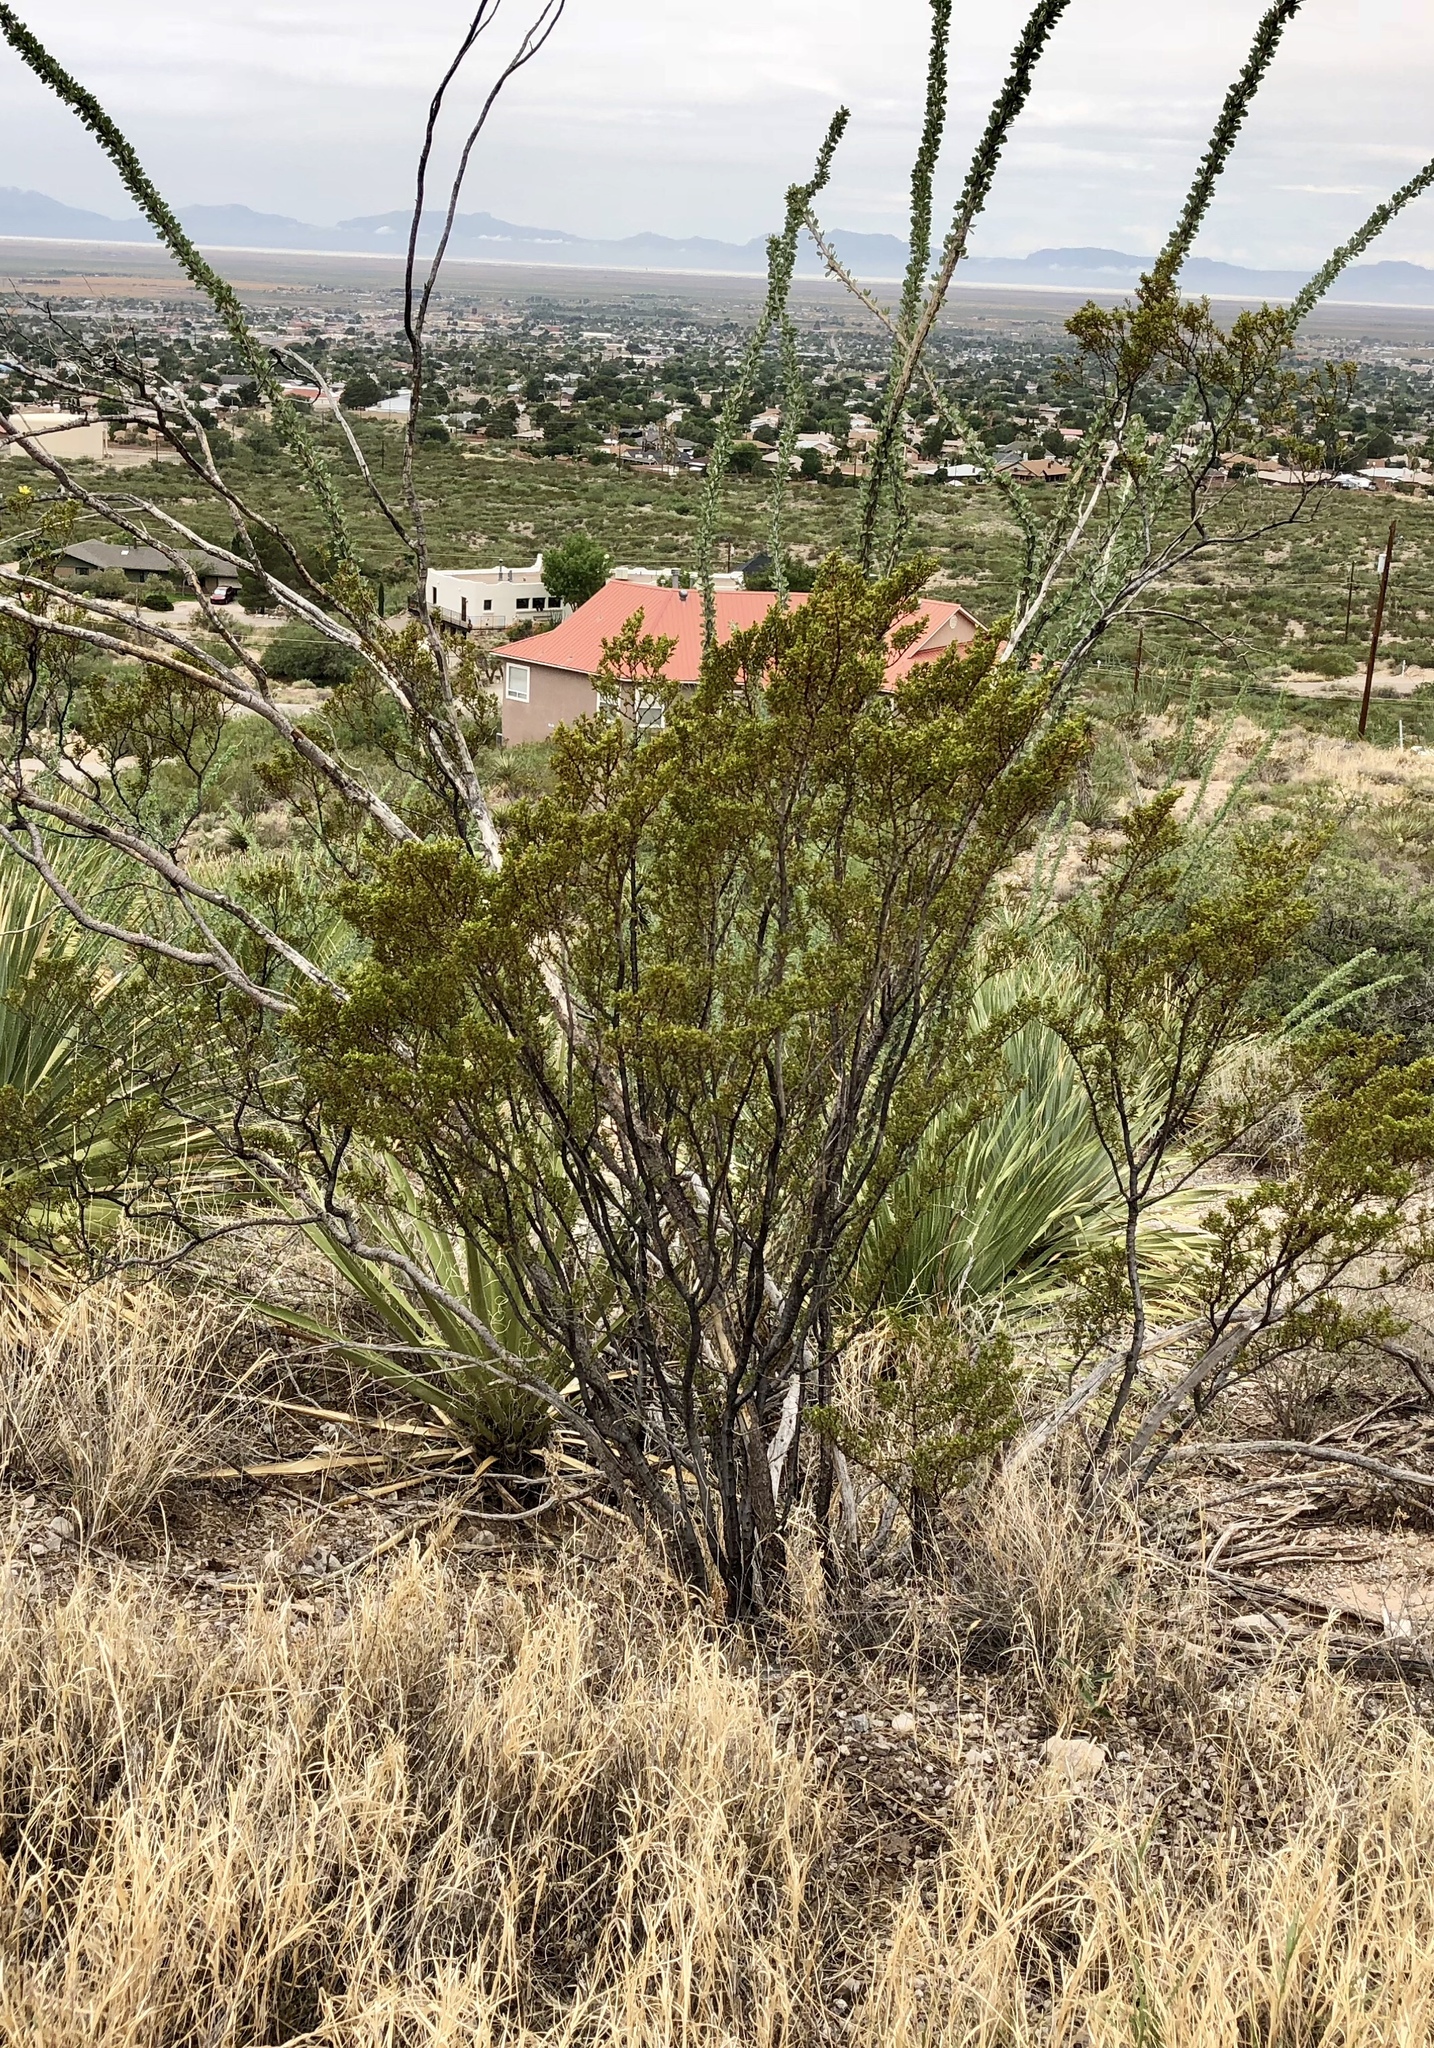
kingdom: Plantae
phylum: Tracheophyta
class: Magnoliopsida
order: Zygophyllales
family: Zygophyllaceae
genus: Larrea
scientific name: Larrea tridentata
